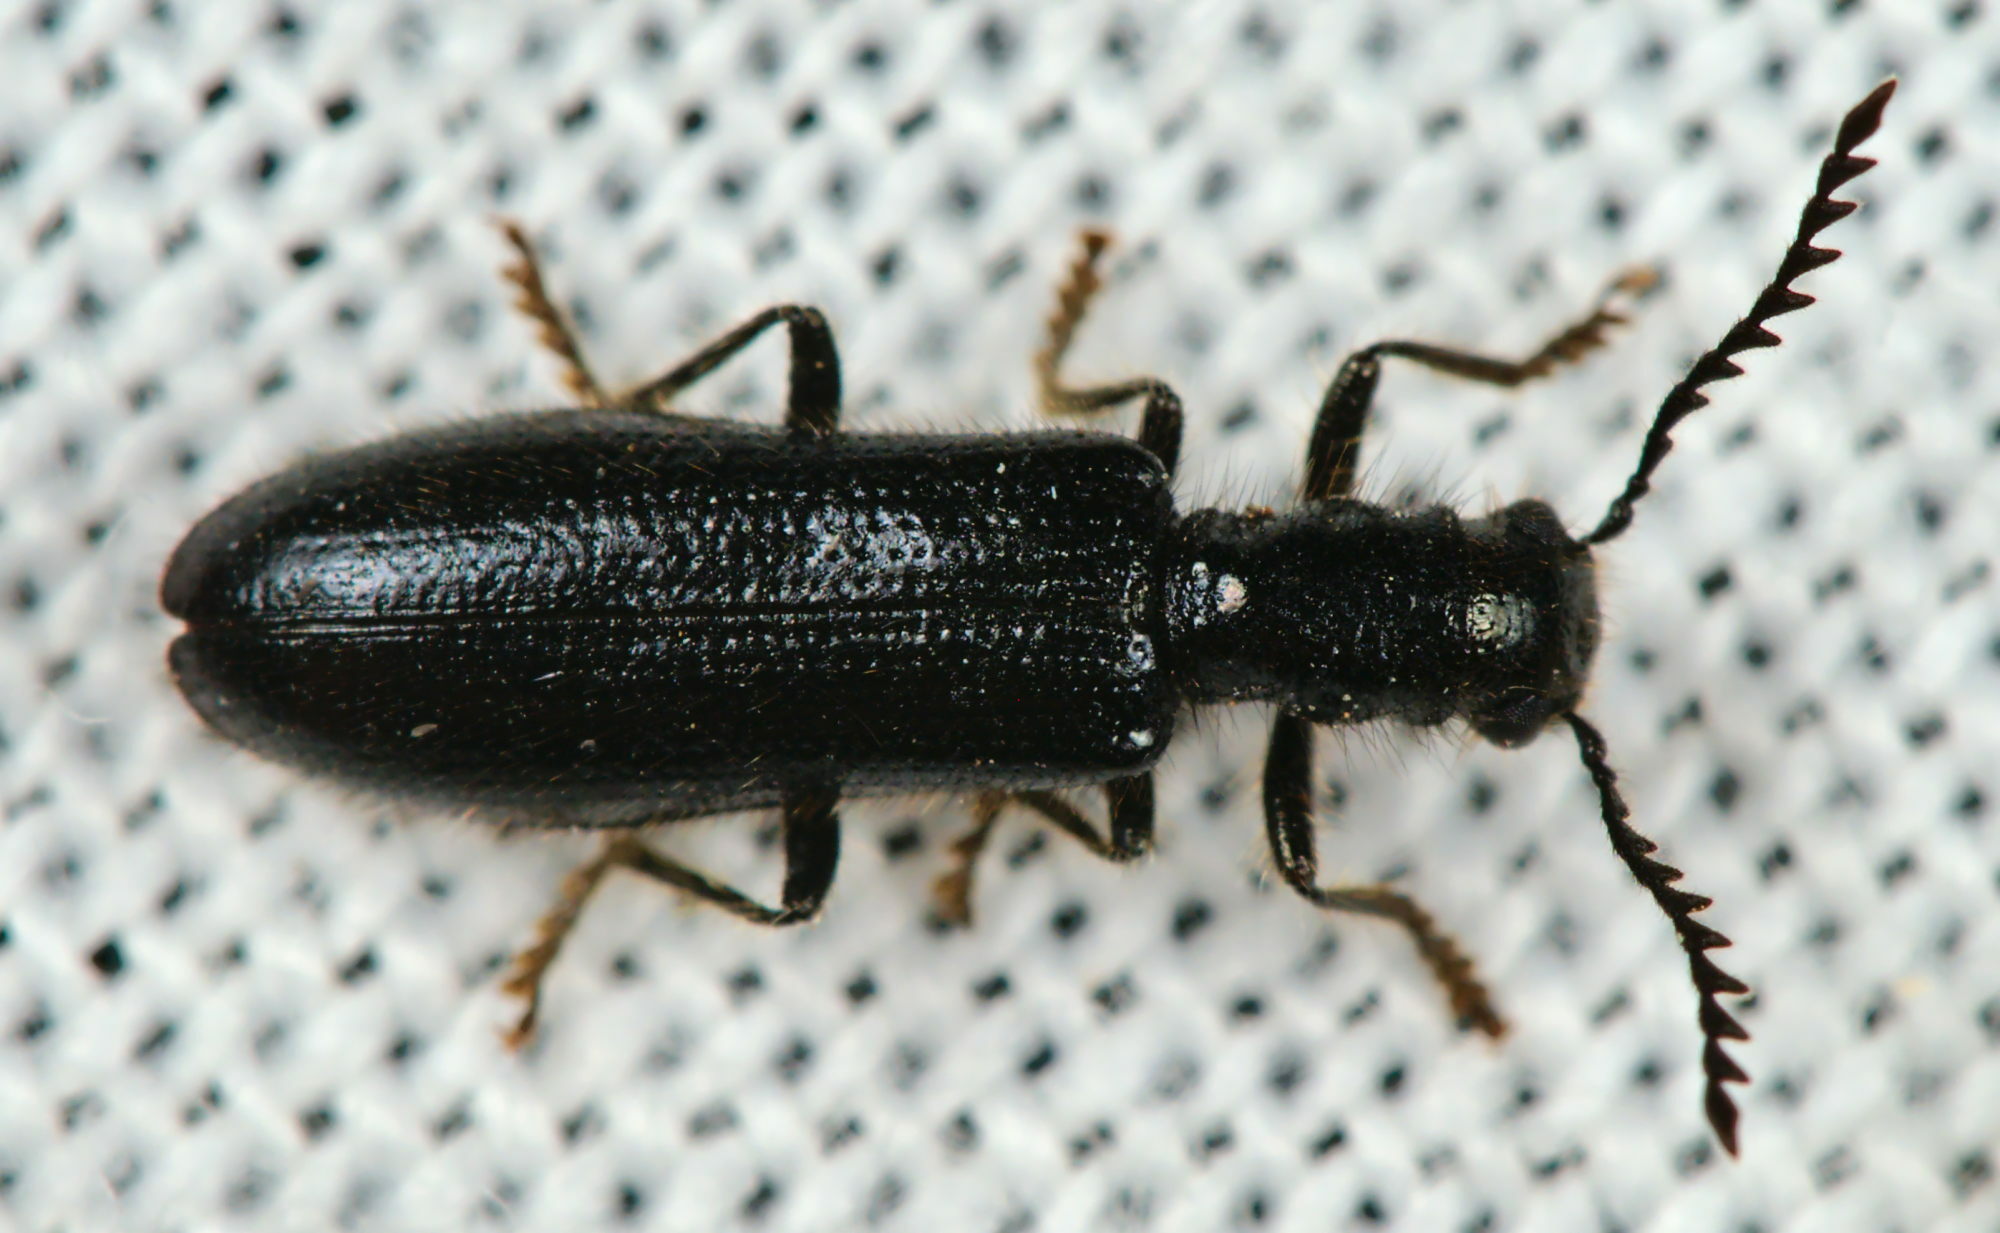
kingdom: Animalia
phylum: Arthropoda
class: Insecta
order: Coleoptera
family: Cleridae
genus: Tillus
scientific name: Tillus elongatus
